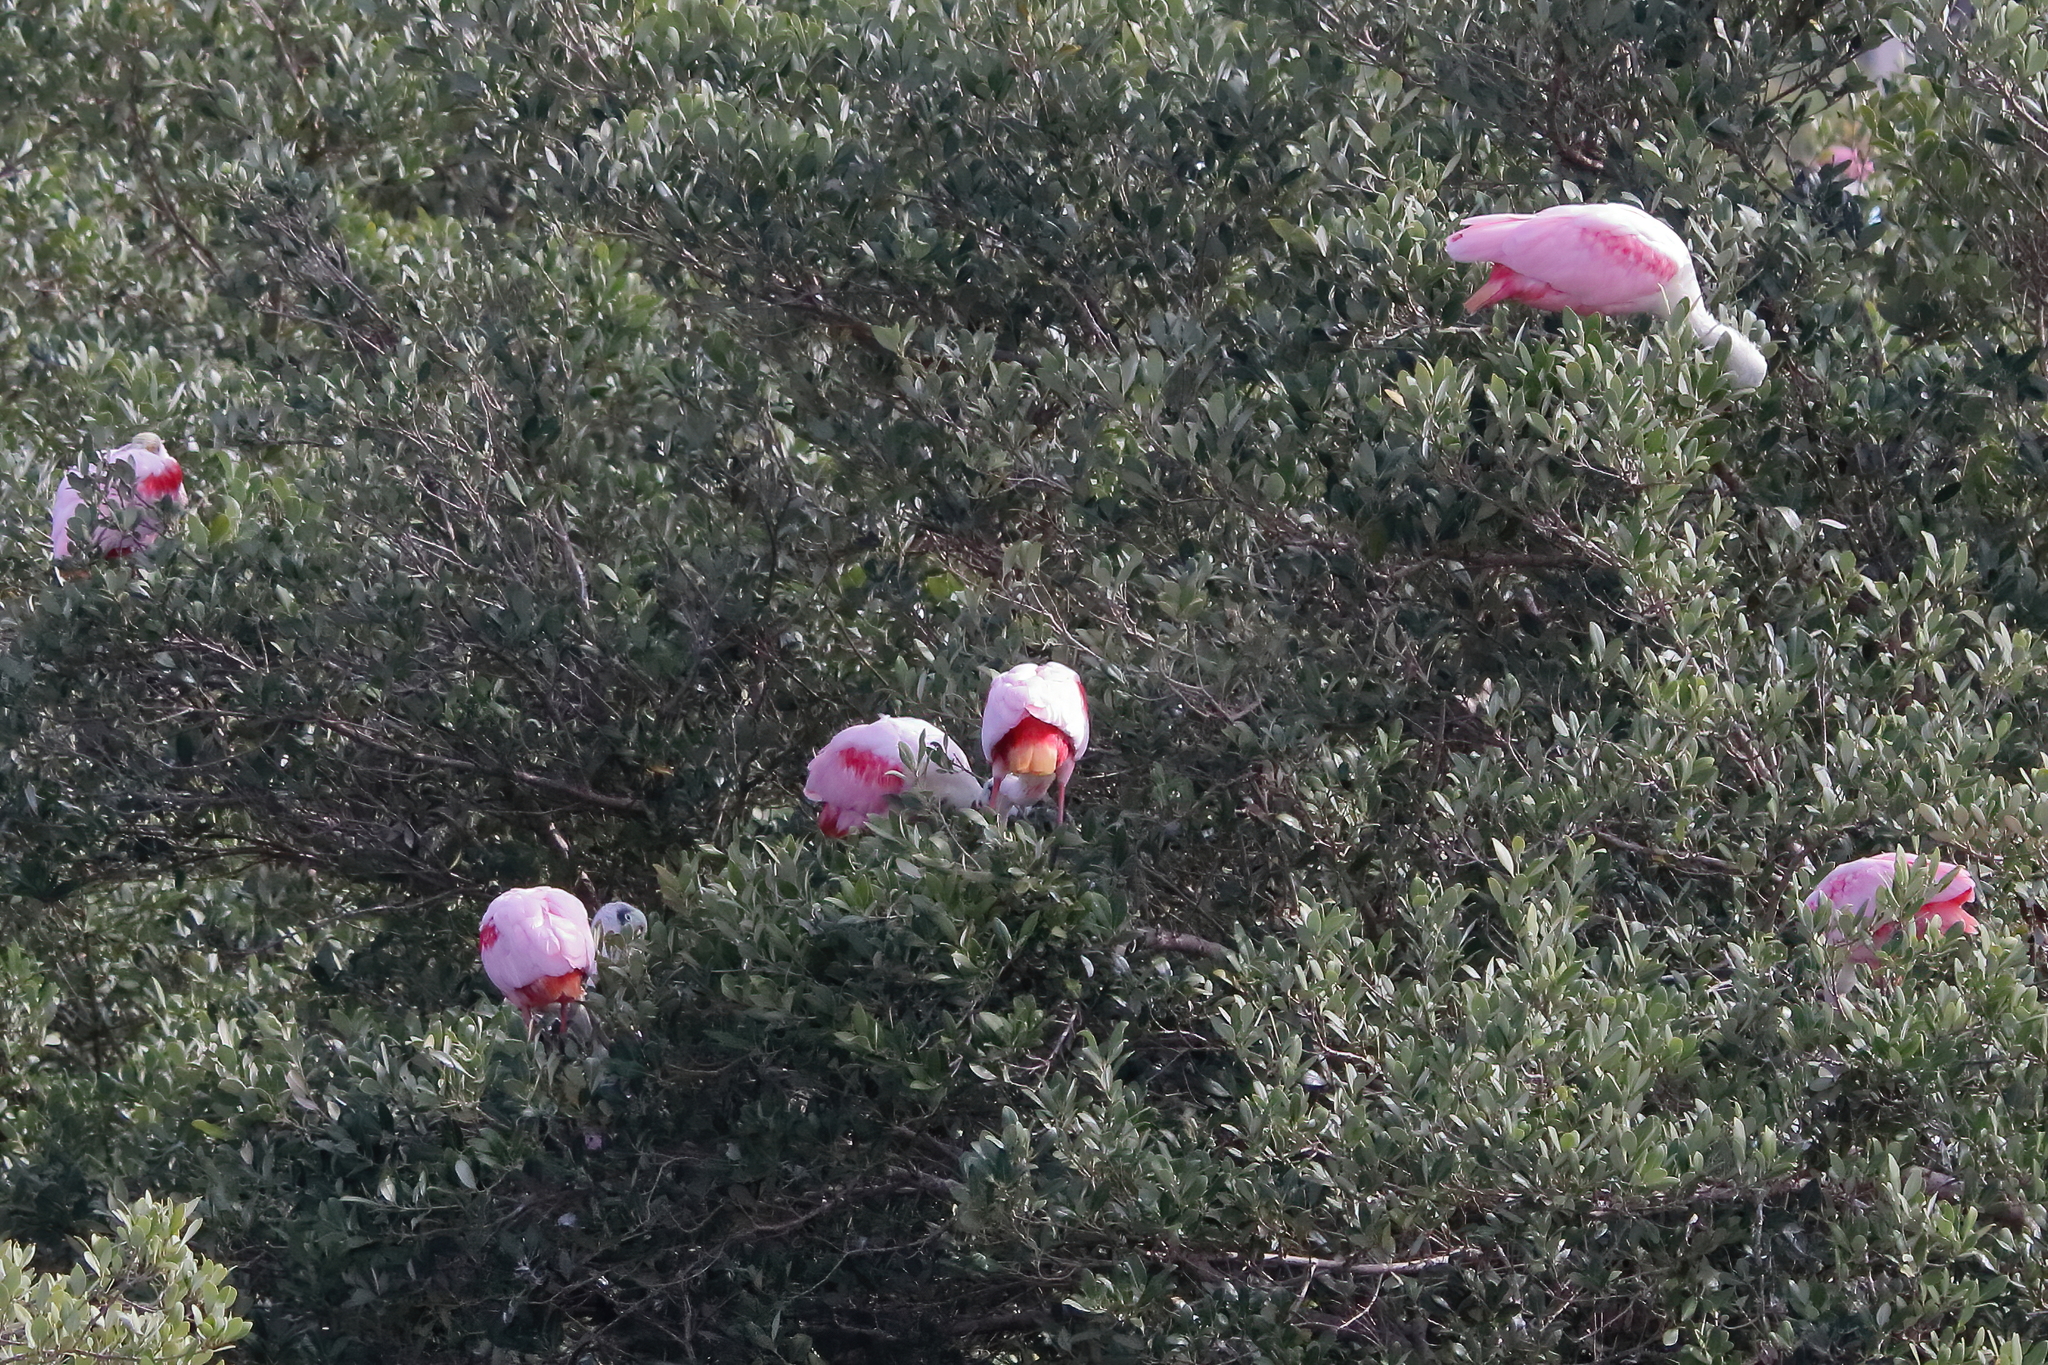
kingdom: Animalia
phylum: Chordata
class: Aves
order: Pelecaniformes
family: Threskiornithidae
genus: Platalea
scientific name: Platalea ajaja
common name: Roseate spoonbill
